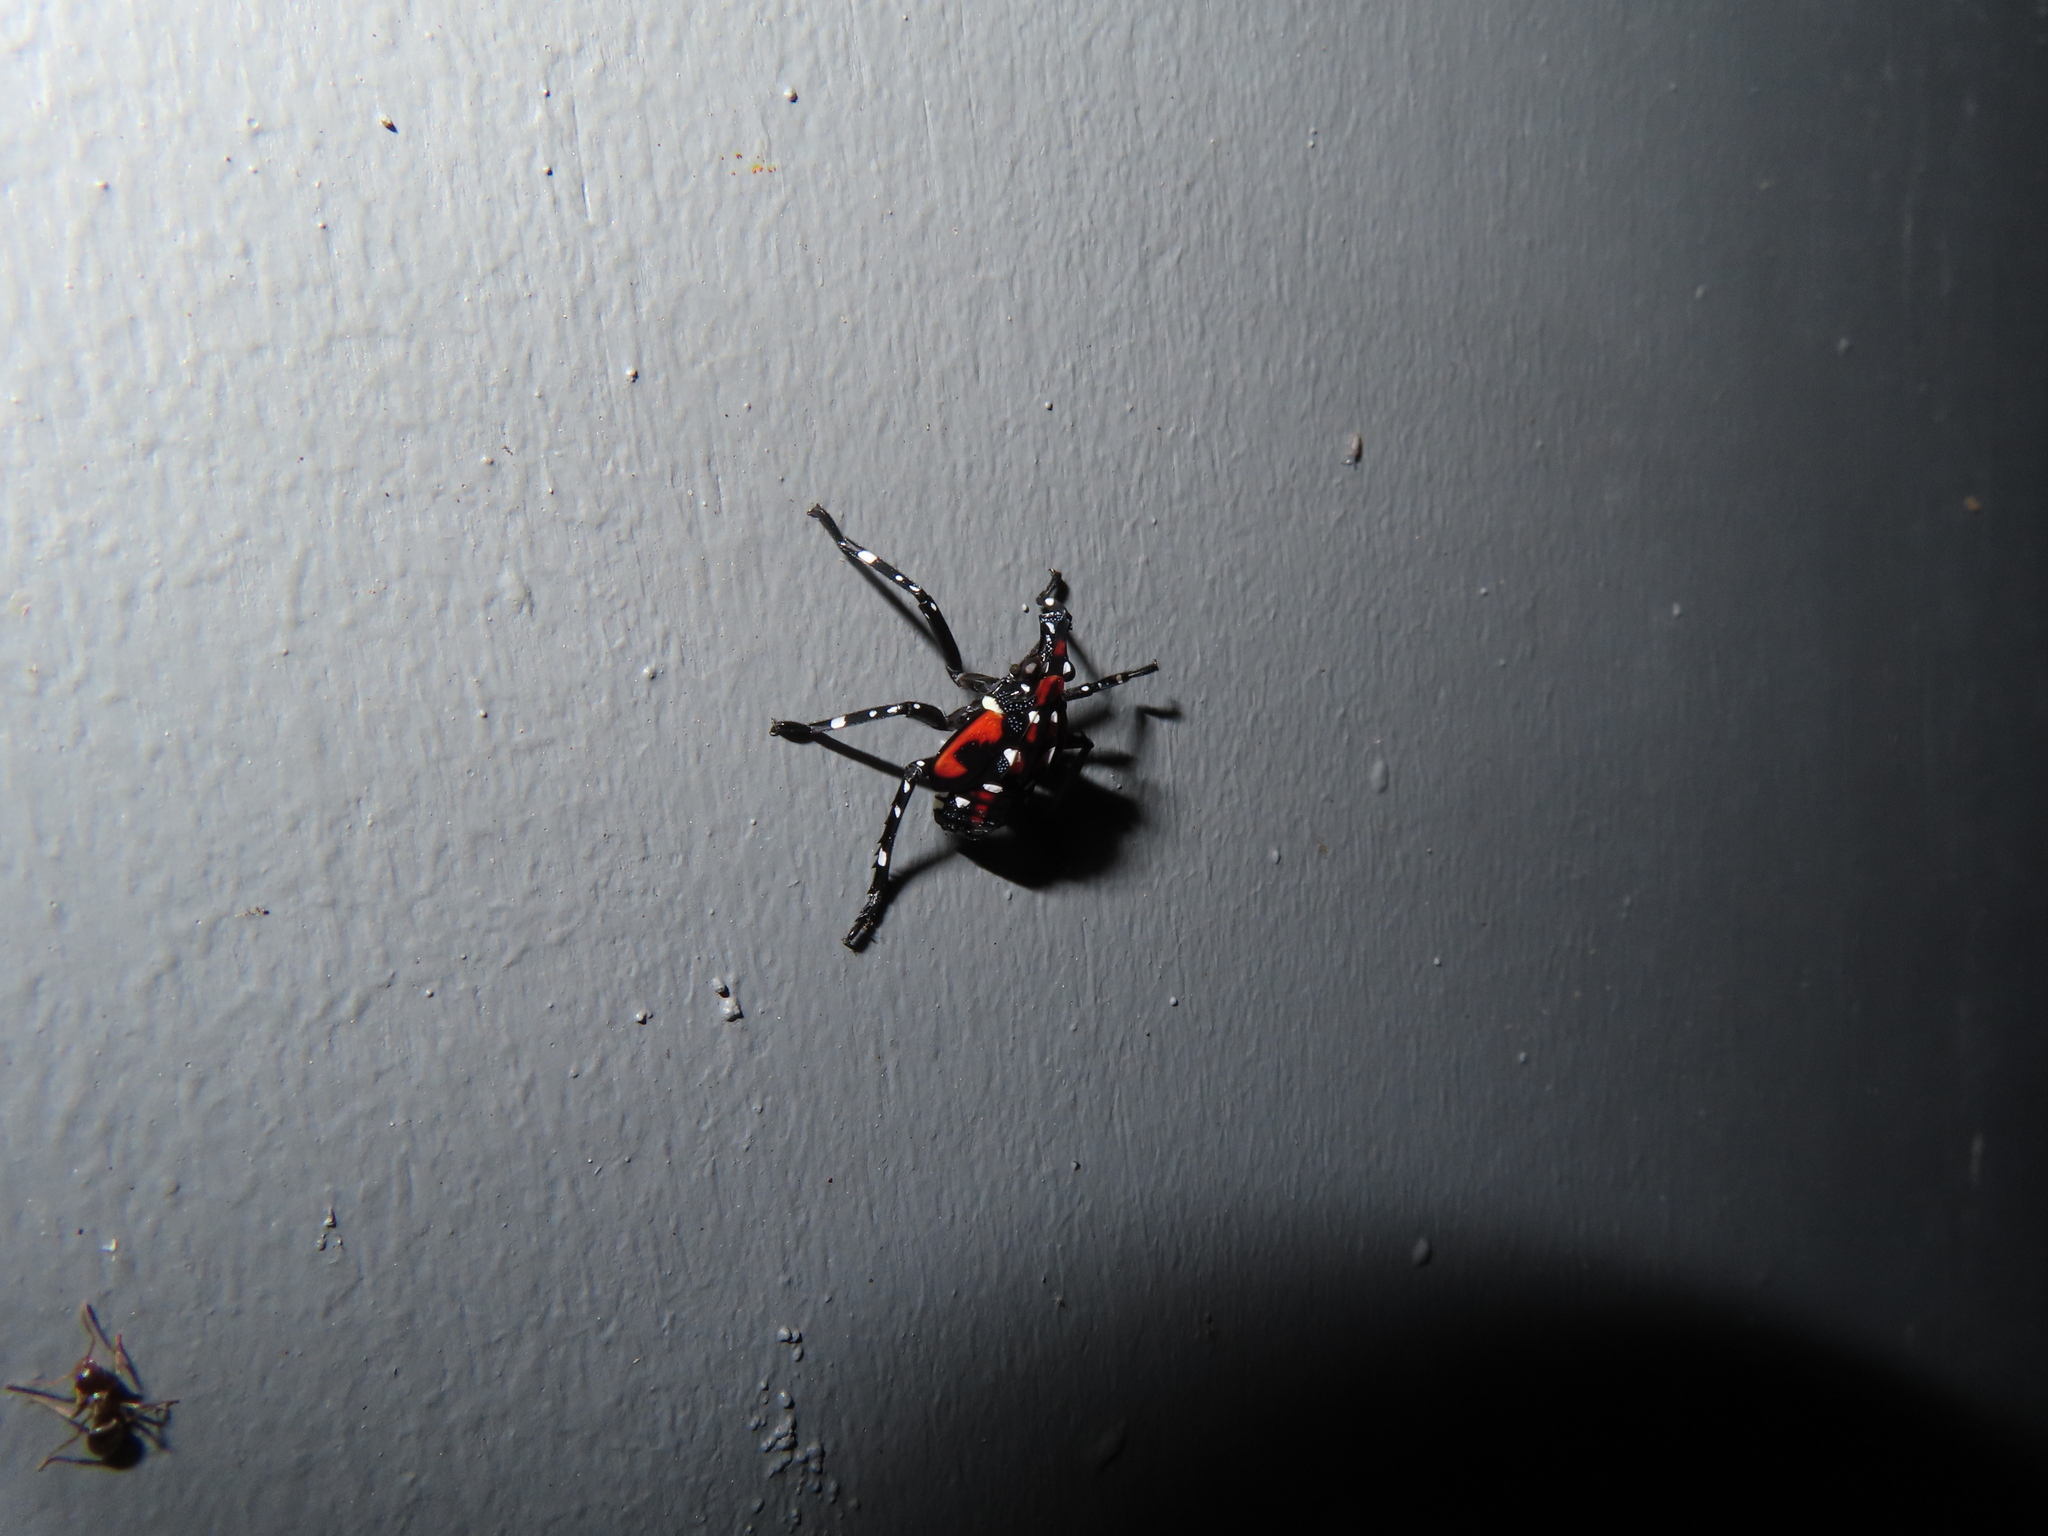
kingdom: Animalia
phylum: Arthropoda
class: Insecta
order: Hemiptera
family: Fulgoridae
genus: Lycorma
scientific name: Lycorma delicatula
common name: Spotted lanternfly
